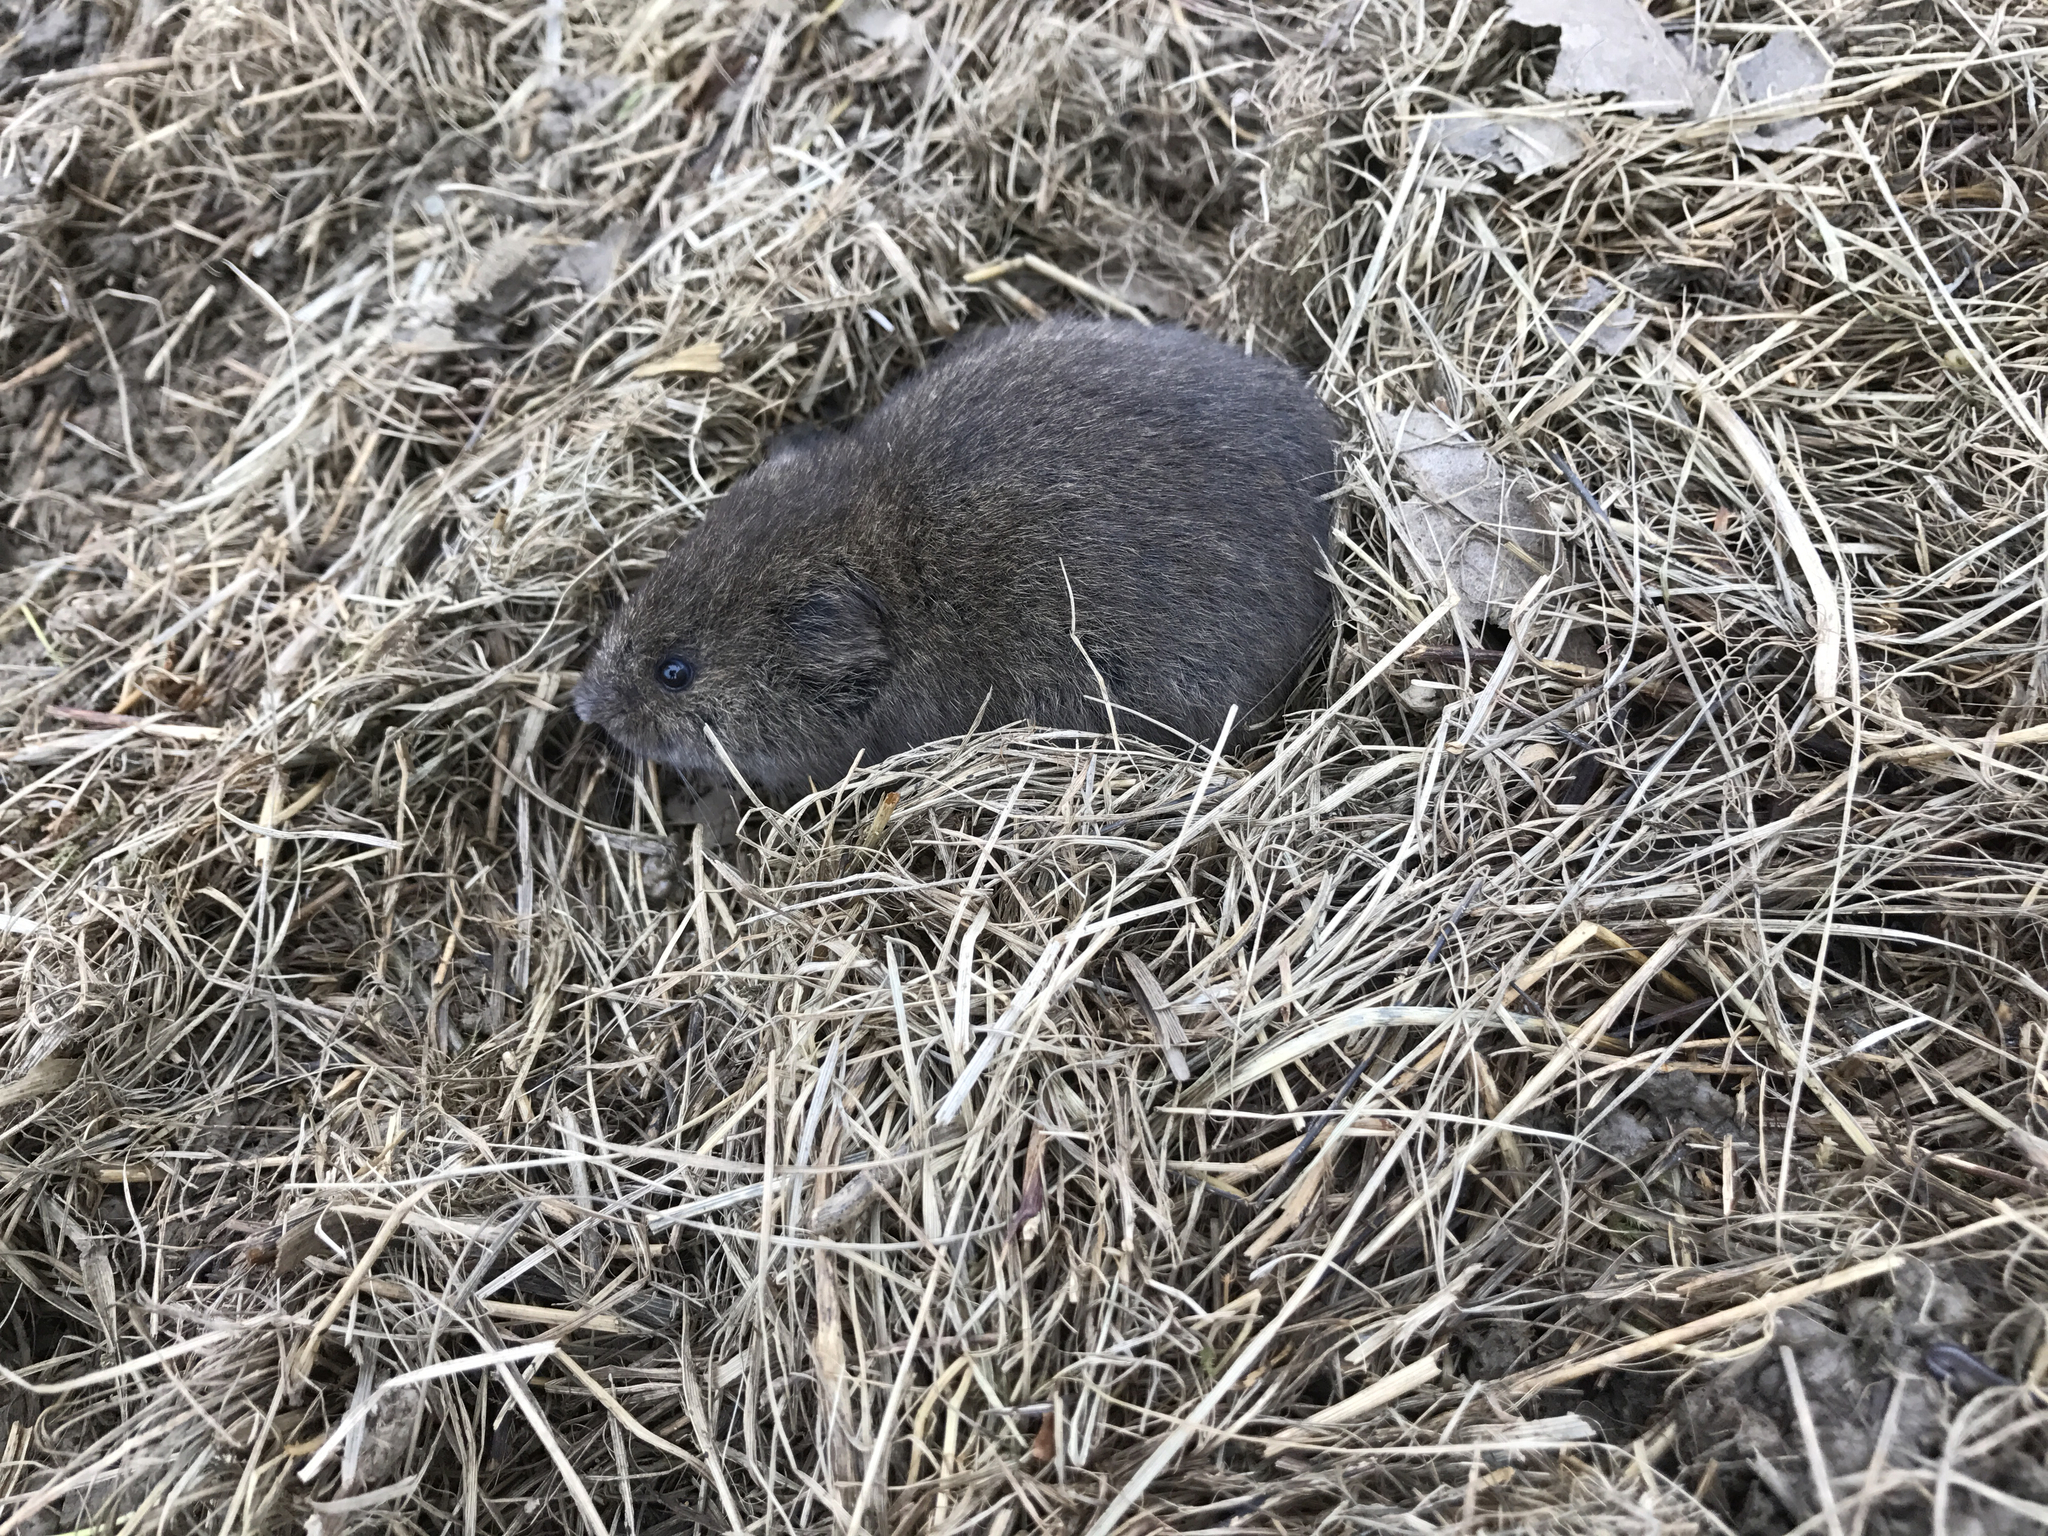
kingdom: Animalia
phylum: Chordata
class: Mammalia
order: Rodentia
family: Cricetidae
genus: Microtus
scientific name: Microtus pennsylvanicus
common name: Meadow vole
